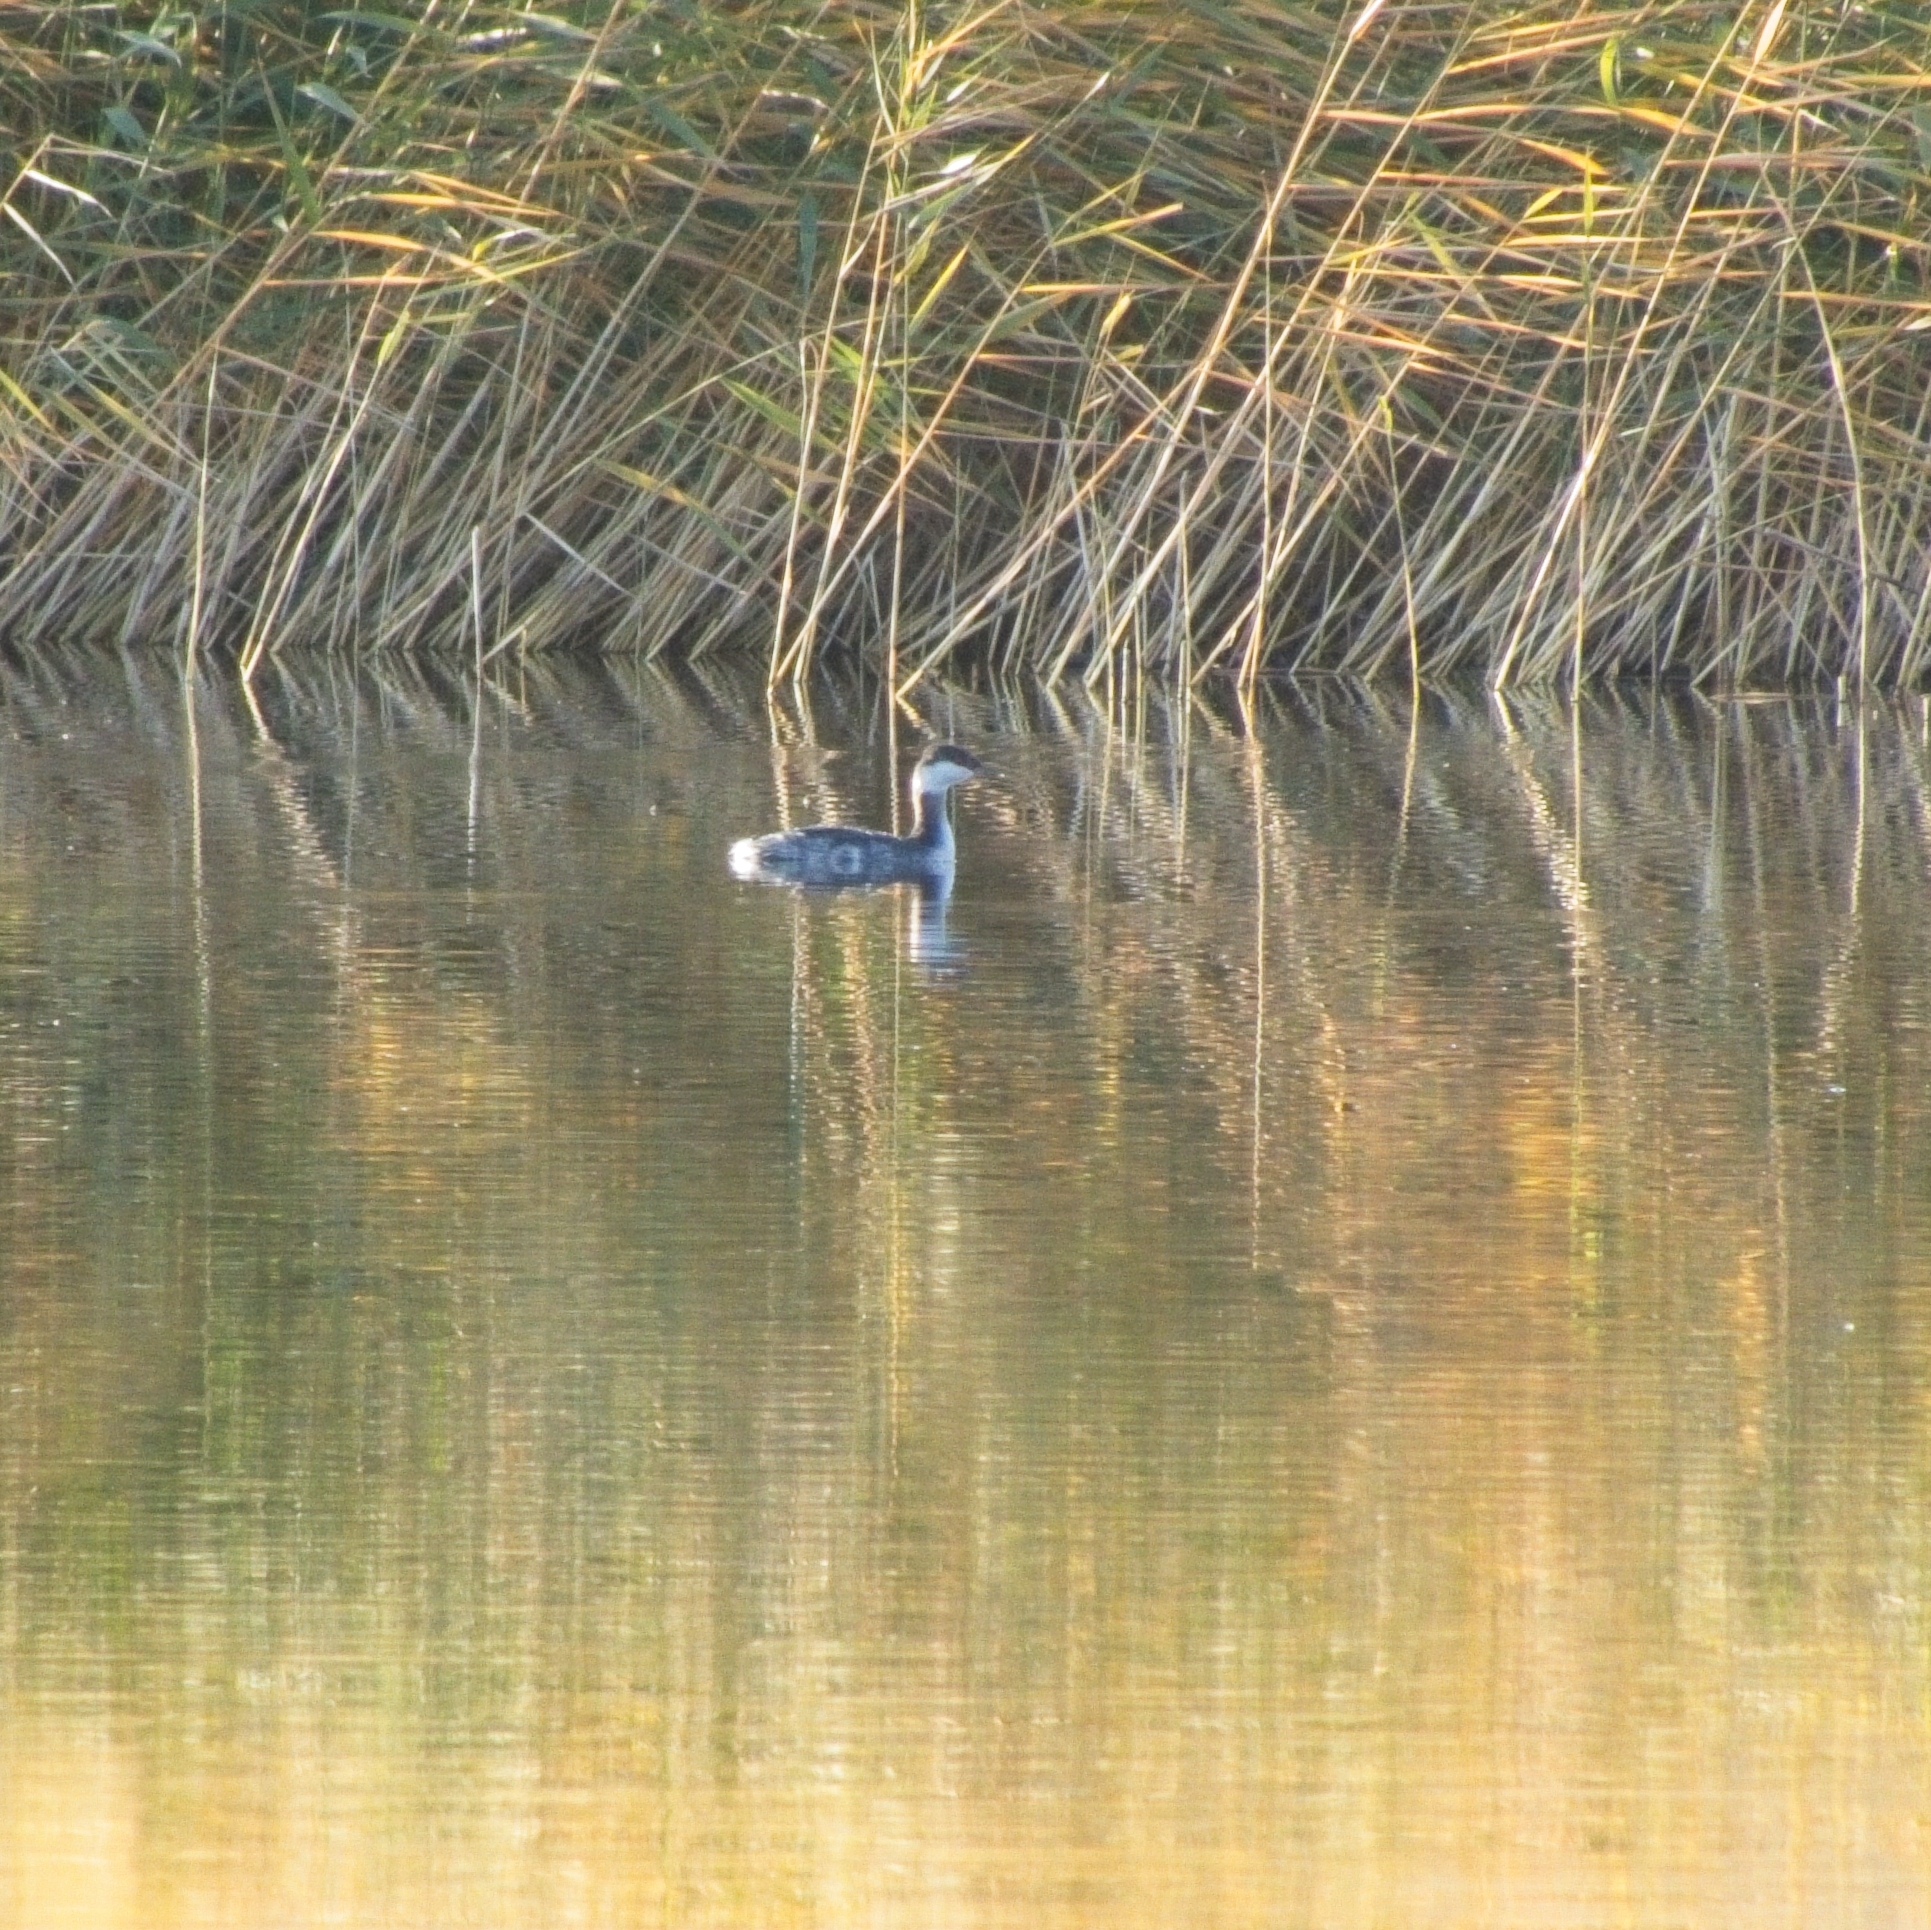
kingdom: Animalia
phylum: Chordata
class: Aves
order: Podicipediformes
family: Podicipedidae
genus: Podiceps
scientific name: Podiceps auritus
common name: Horned grebe
